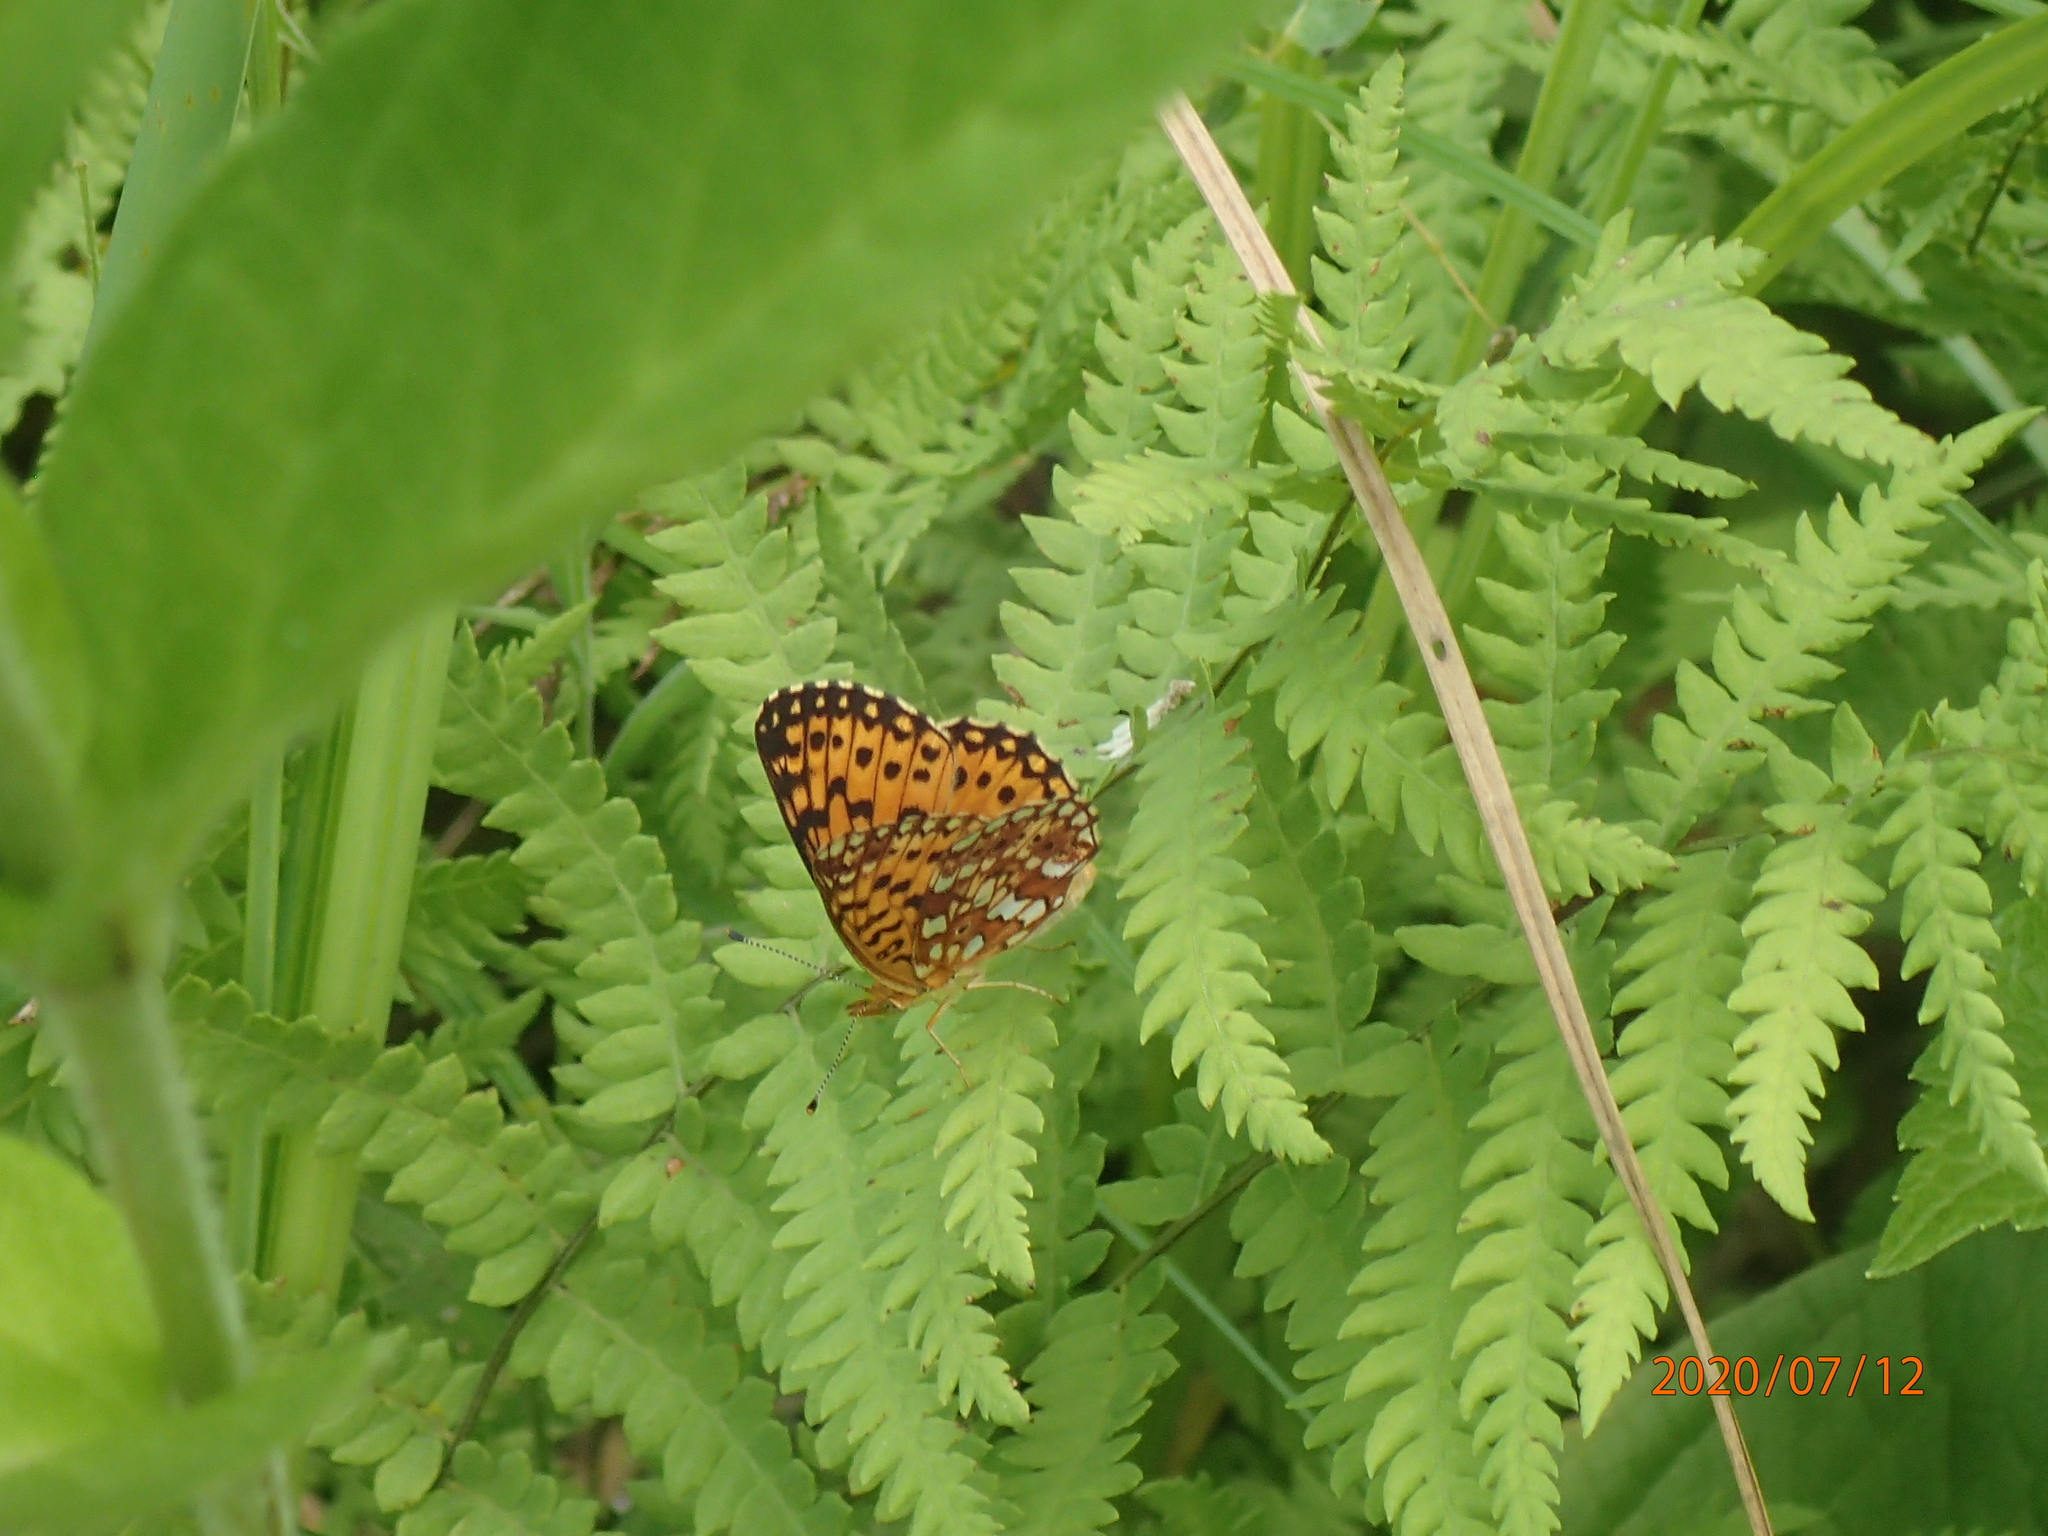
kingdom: Animalia
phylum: Arthropoda
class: Insecta
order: Lepidoptera
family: Nymphalidae
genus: Boloria
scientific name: Boloria
